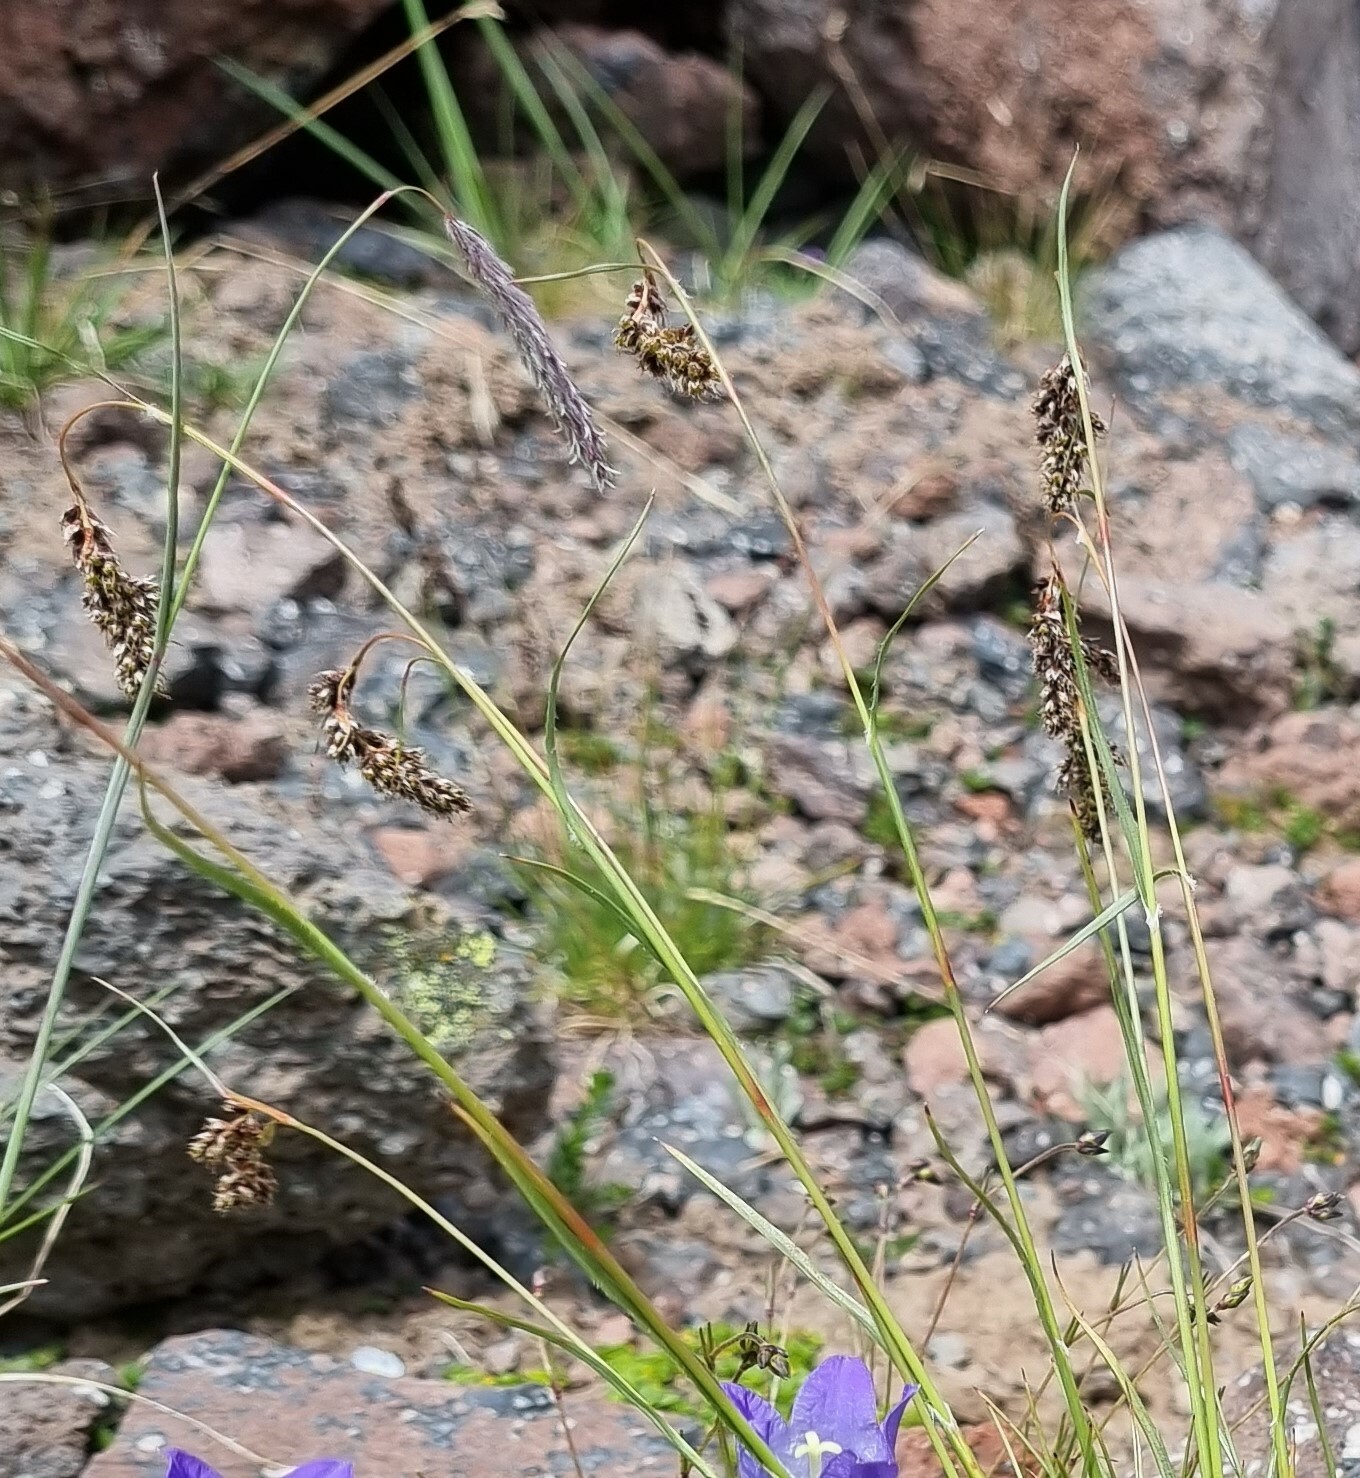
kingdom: Plantae
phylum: Tracheophyta
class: Liliopsida
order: Poales
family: Juncaceae
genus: Luzula
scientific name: Luzula spicata
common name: Spiked wood-rush
